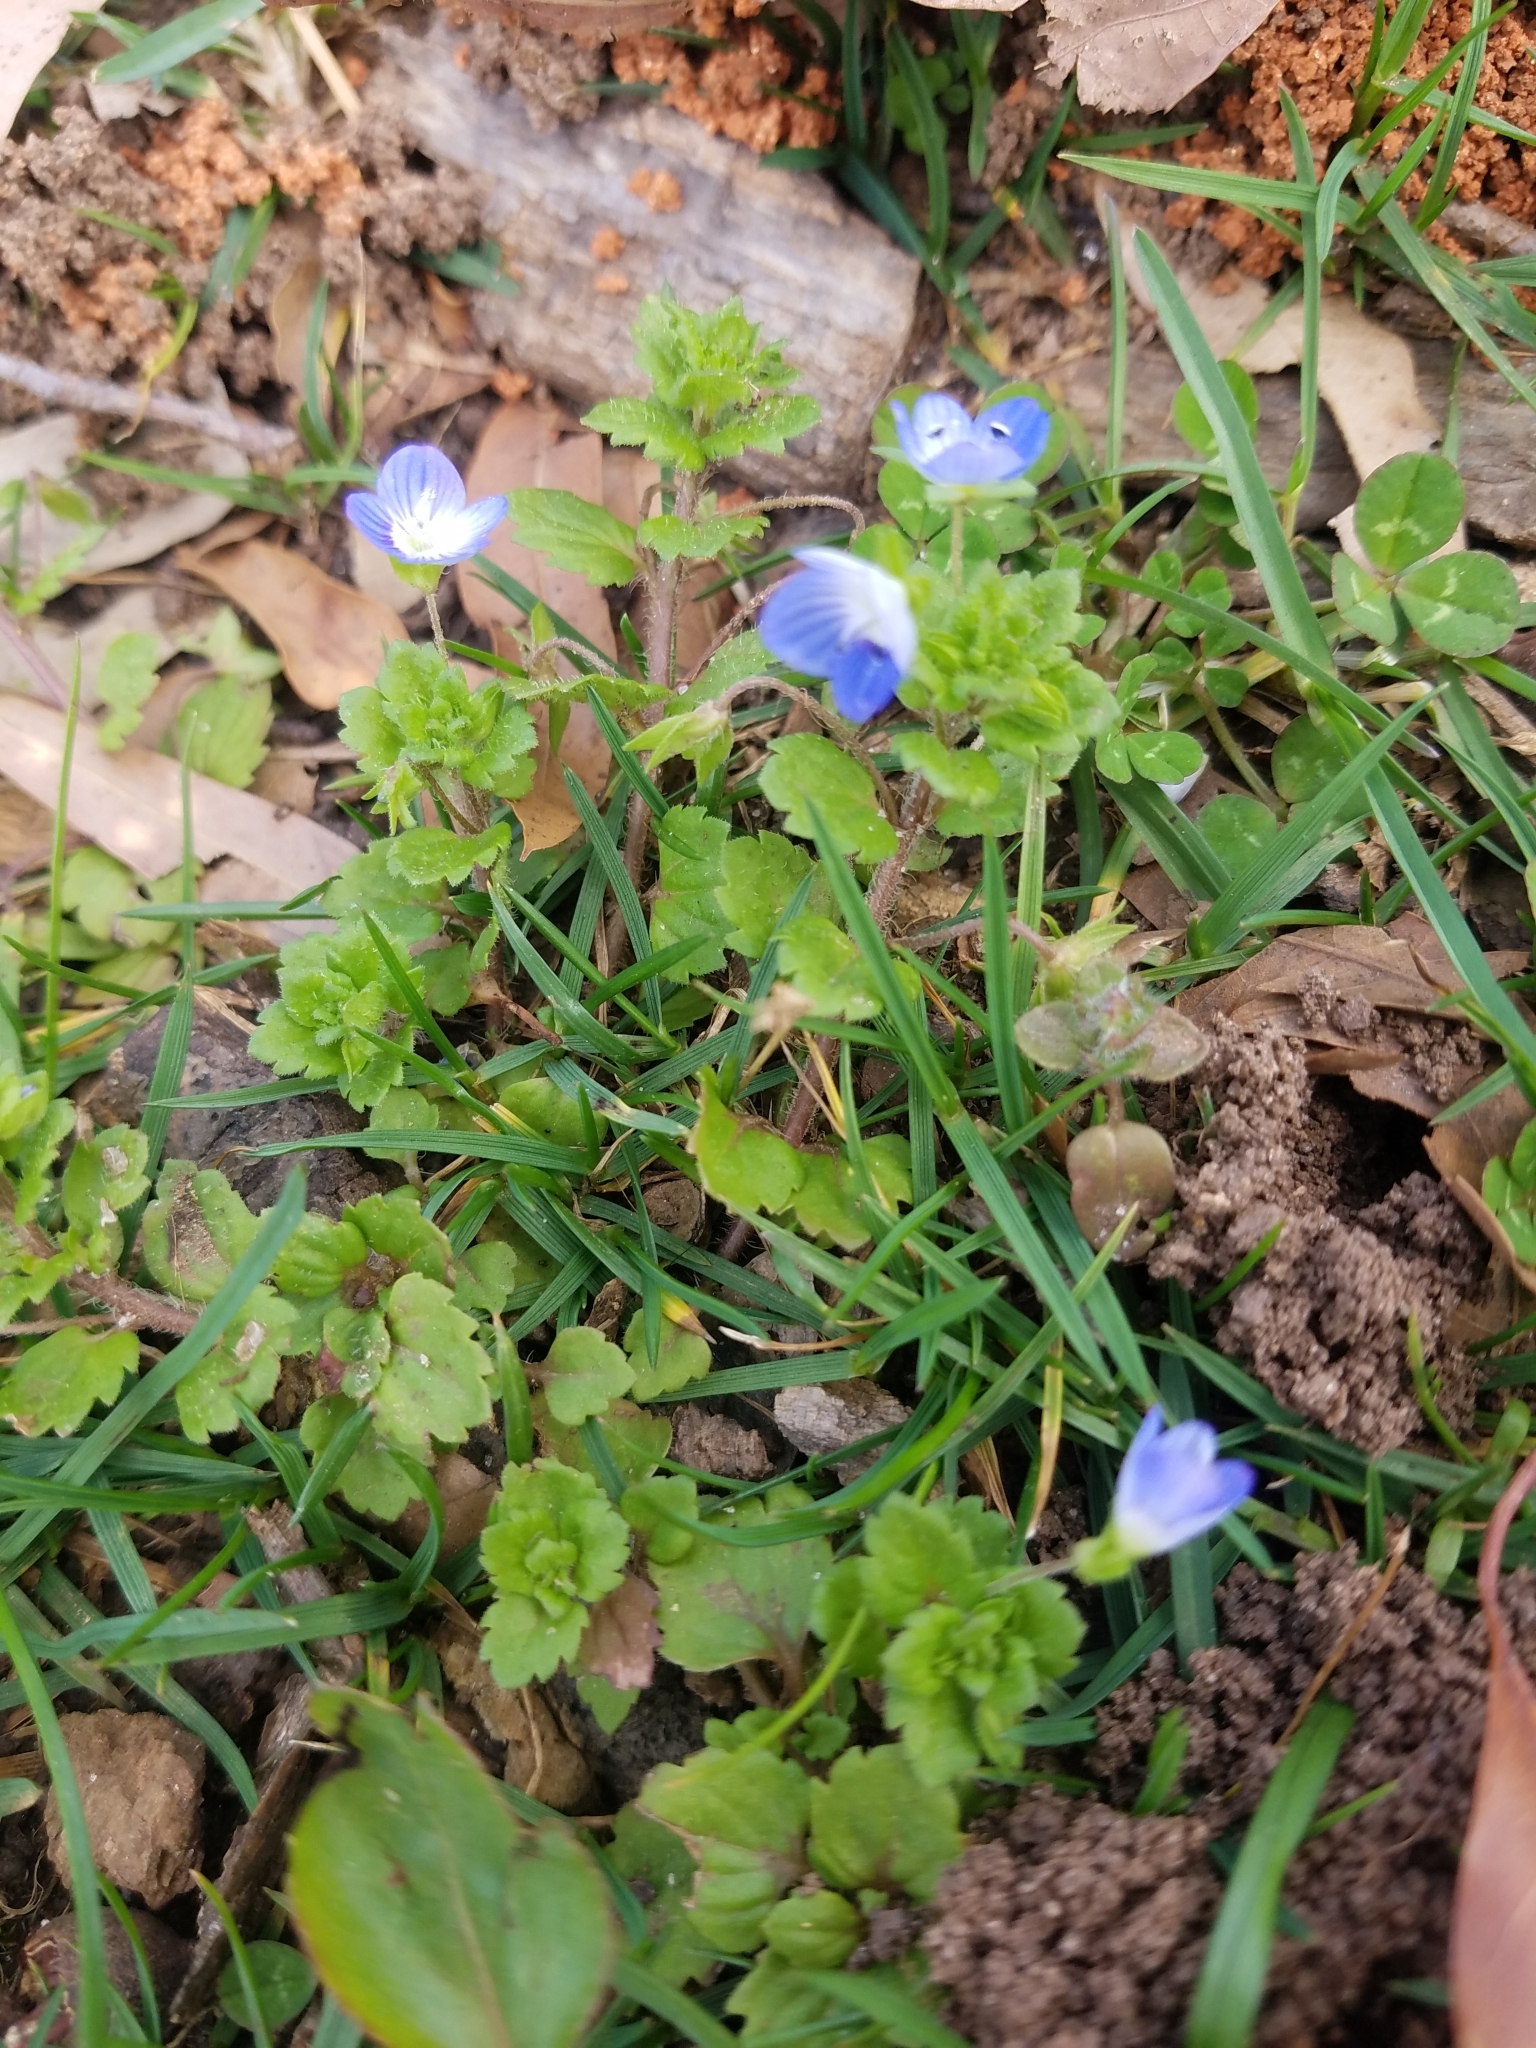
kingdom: Plantae
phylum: Tracheophyta
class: Magnoliopsida
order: Lamiales
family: Plantaginaceae
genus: Veronica
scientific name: Veronica persica
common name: Common field-speedwell
